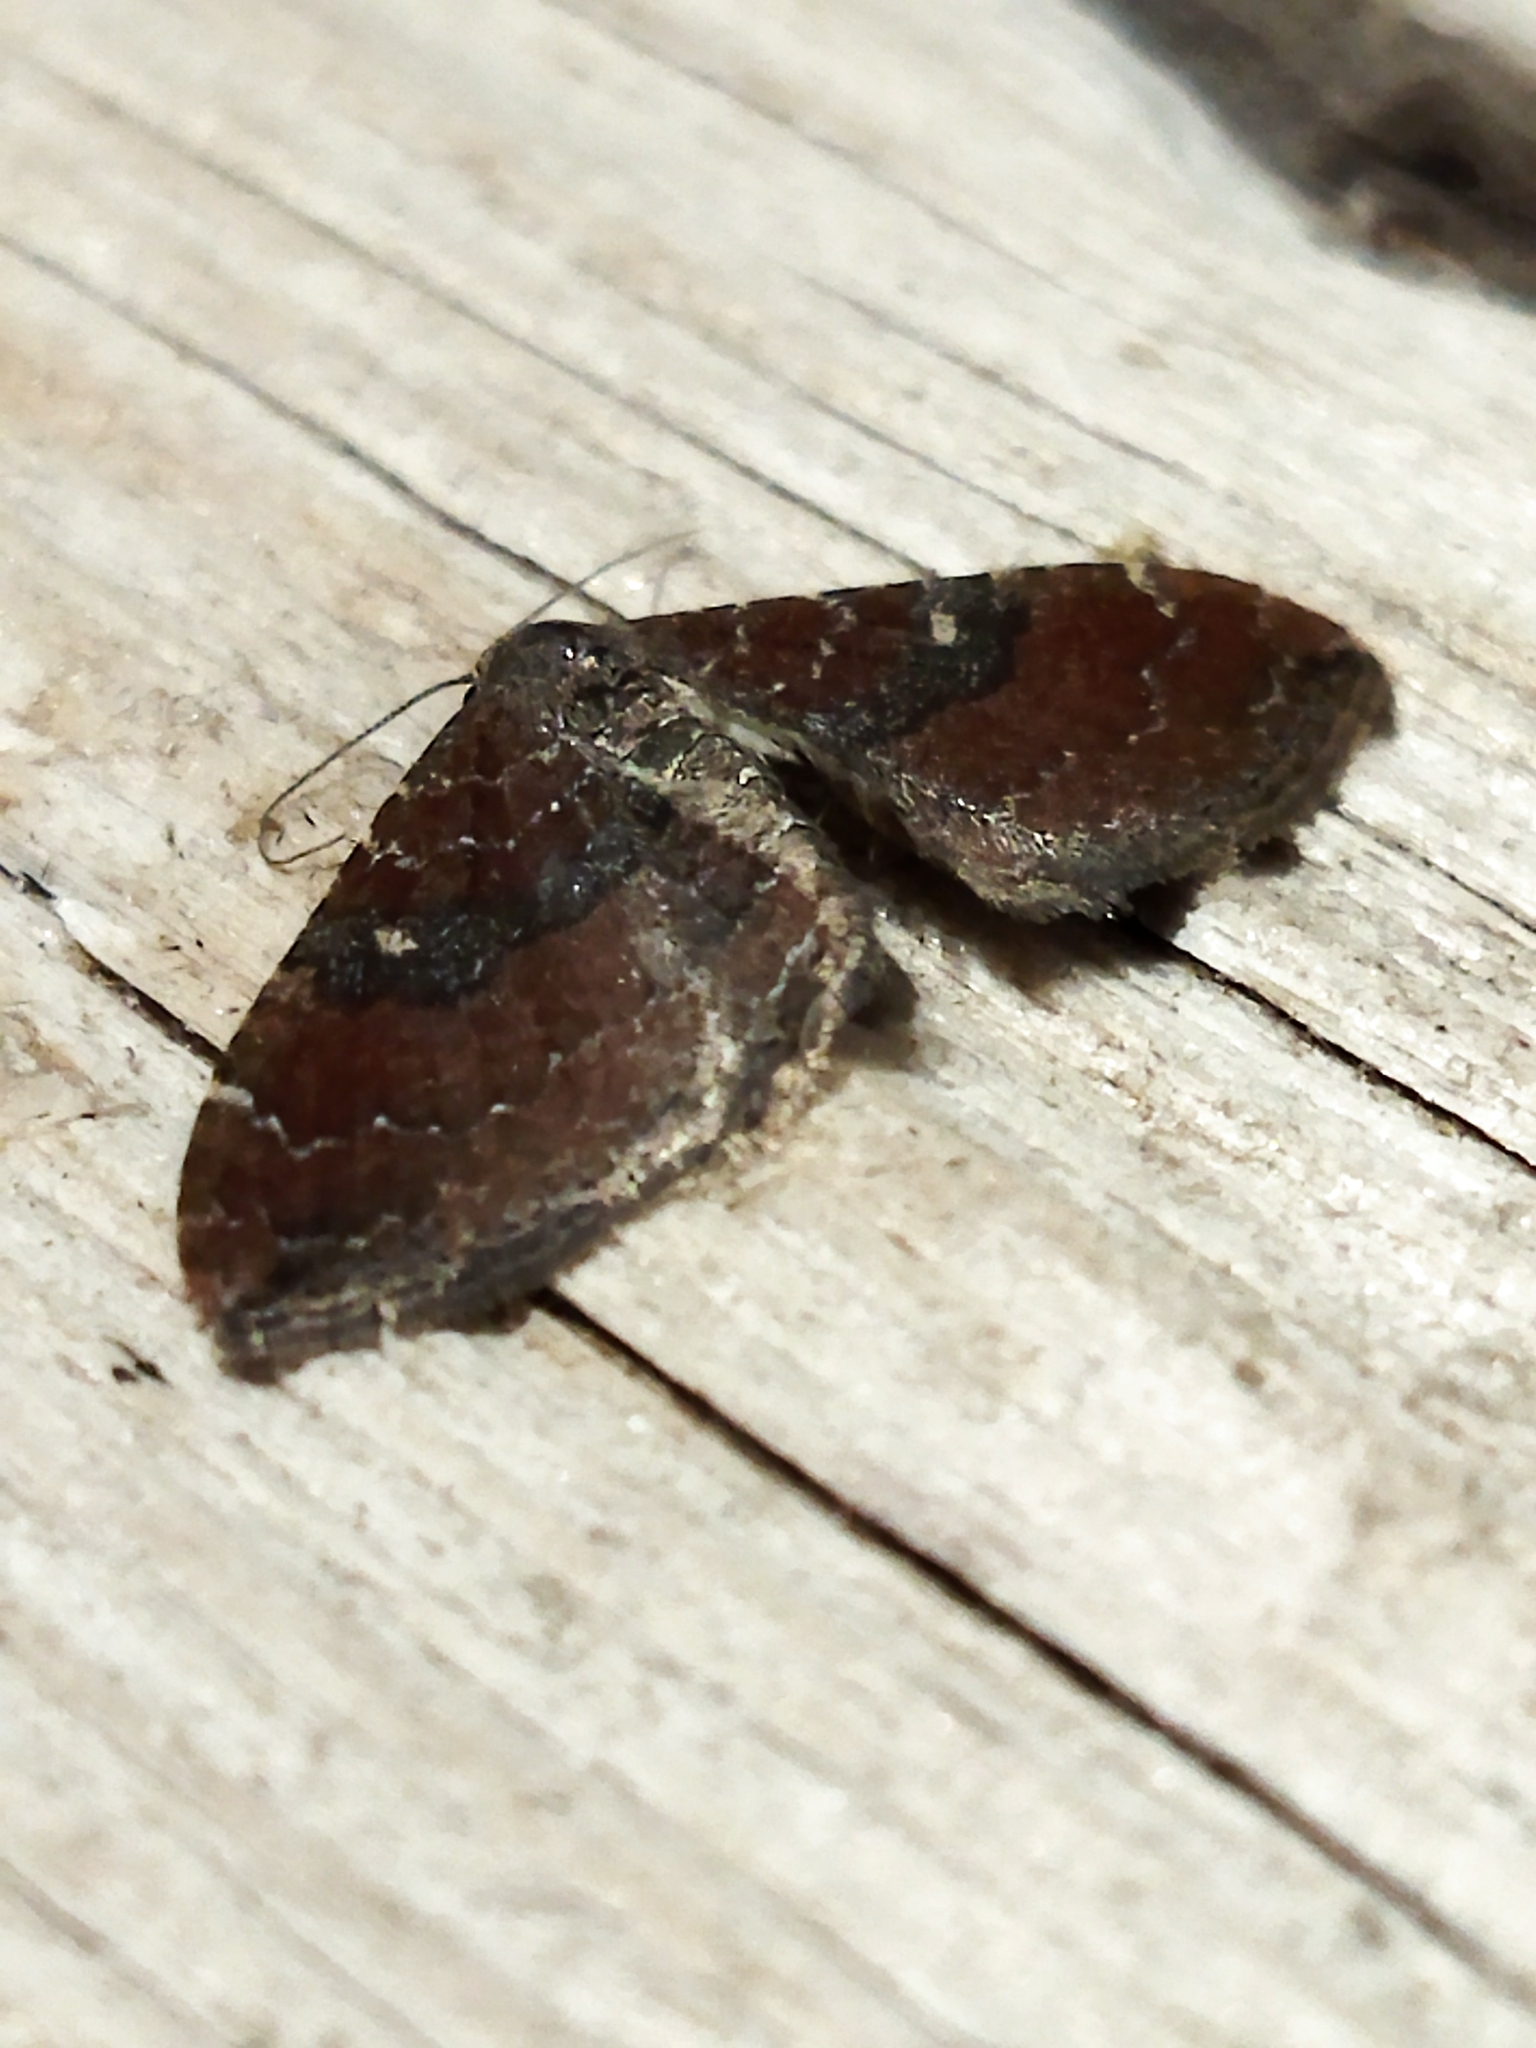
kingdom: Animalia
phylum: Arthropoda
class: Insecta
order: Lepidoptera
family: Geometridae
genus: Orthonama
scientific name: Orthonama obstipata
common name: The gem
